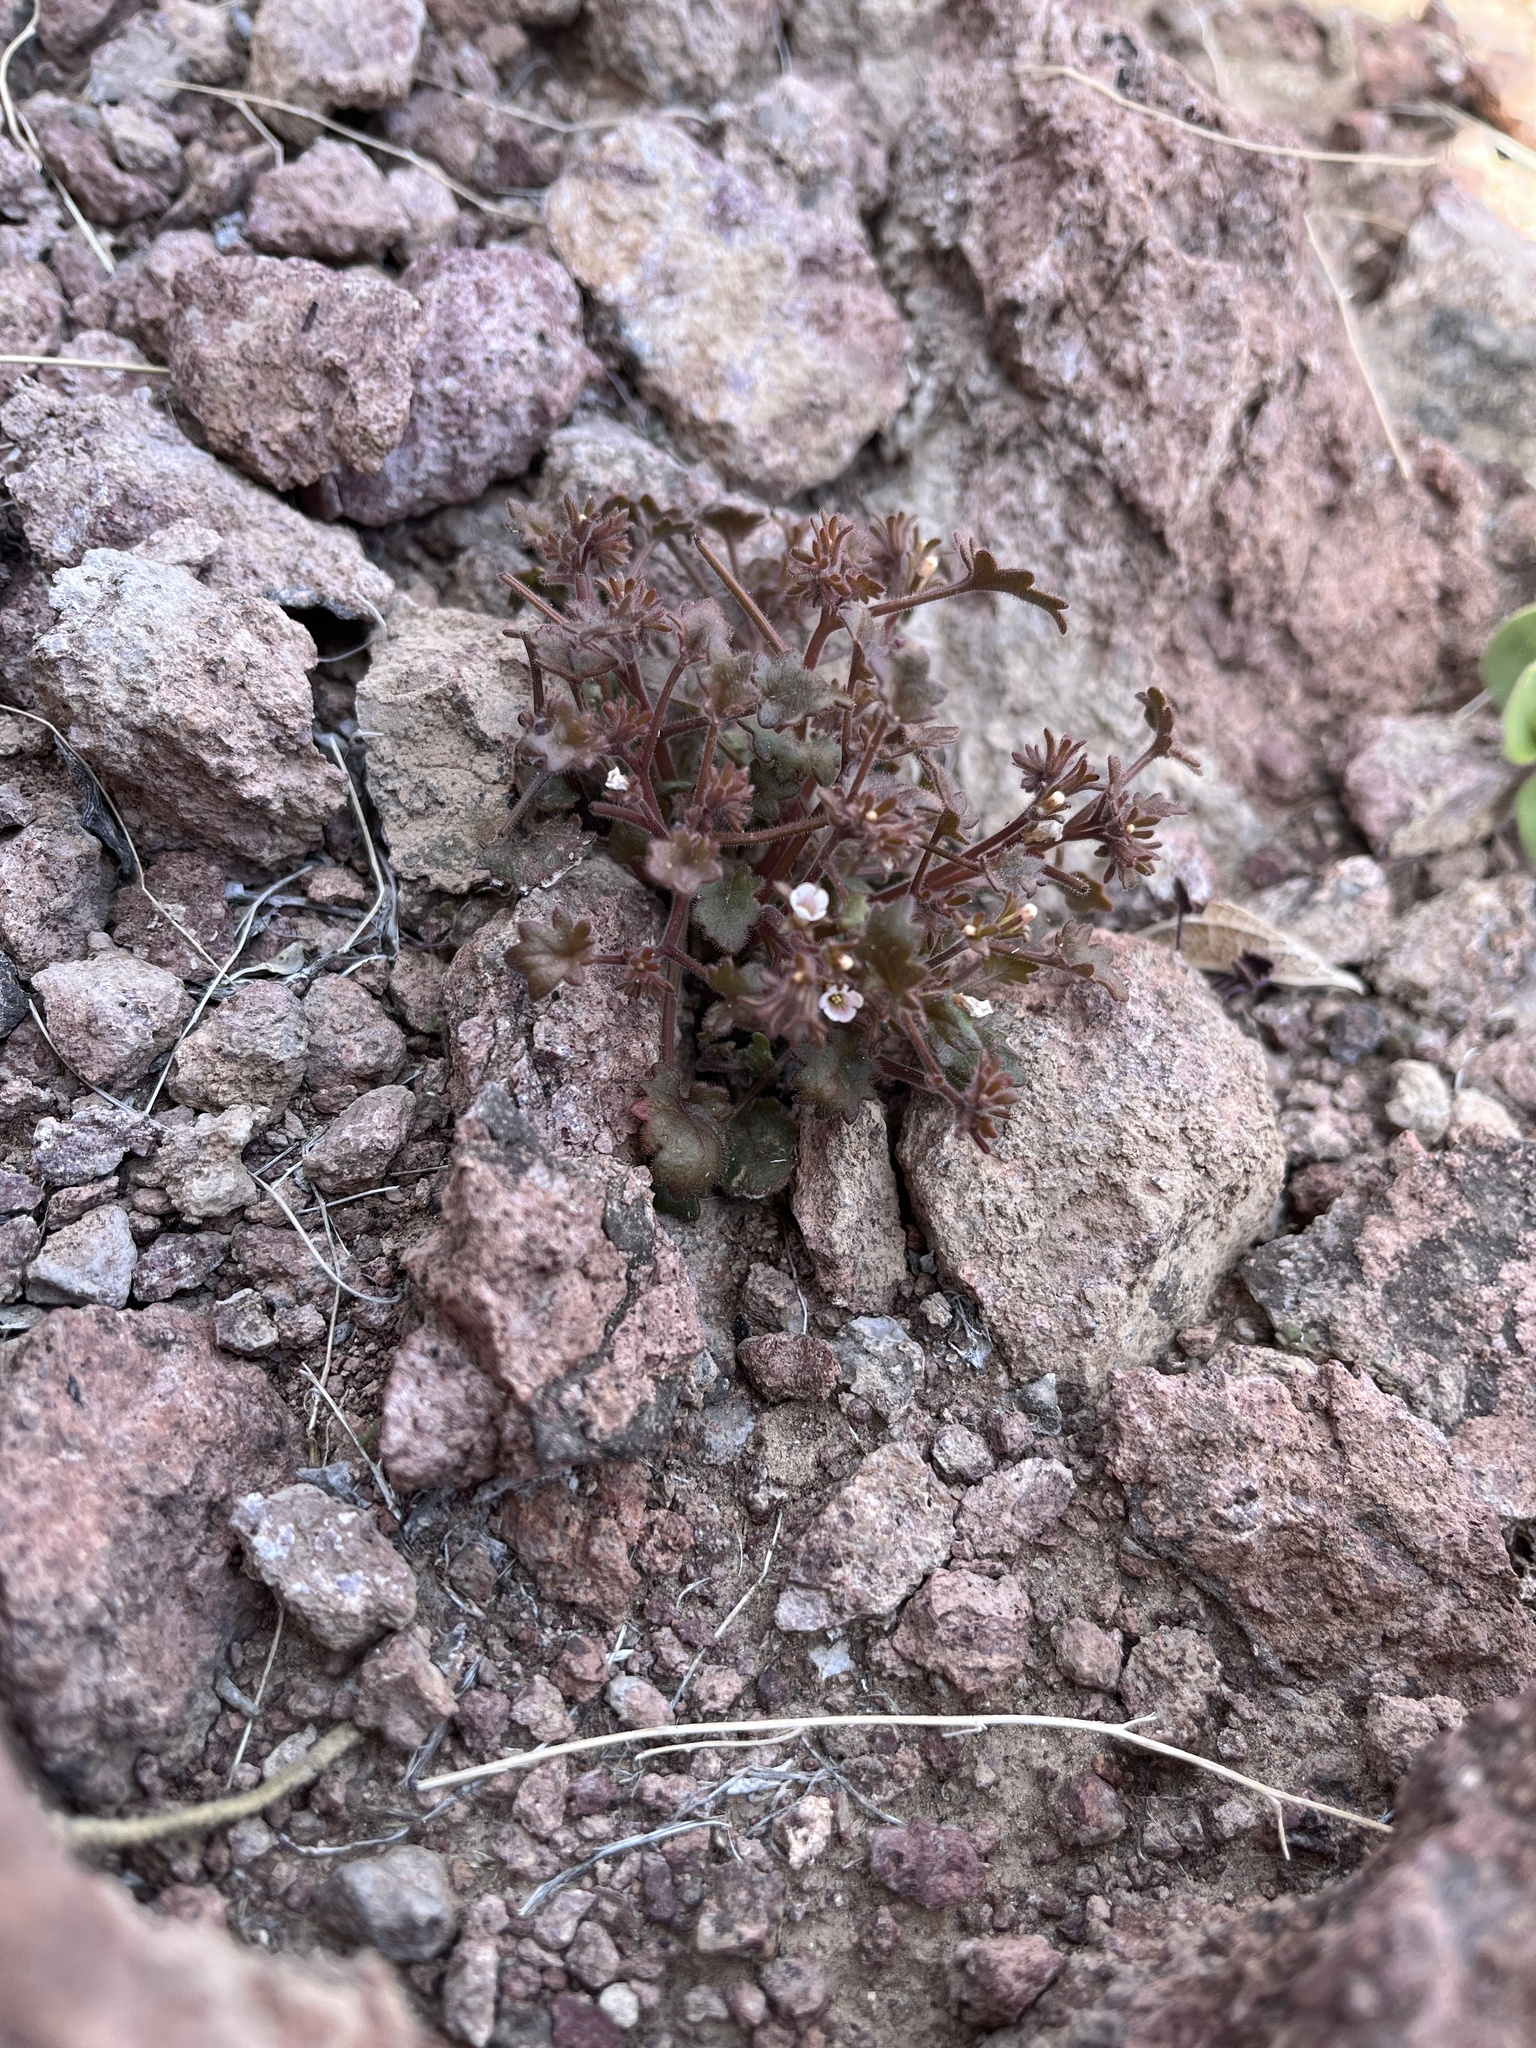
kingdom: Plantae
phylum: Tracheophyta
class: Magnoliopsida
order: Boraginales
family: Hydrophyllaceae
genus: Phacelia
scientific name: Phacelia rotundifolia
